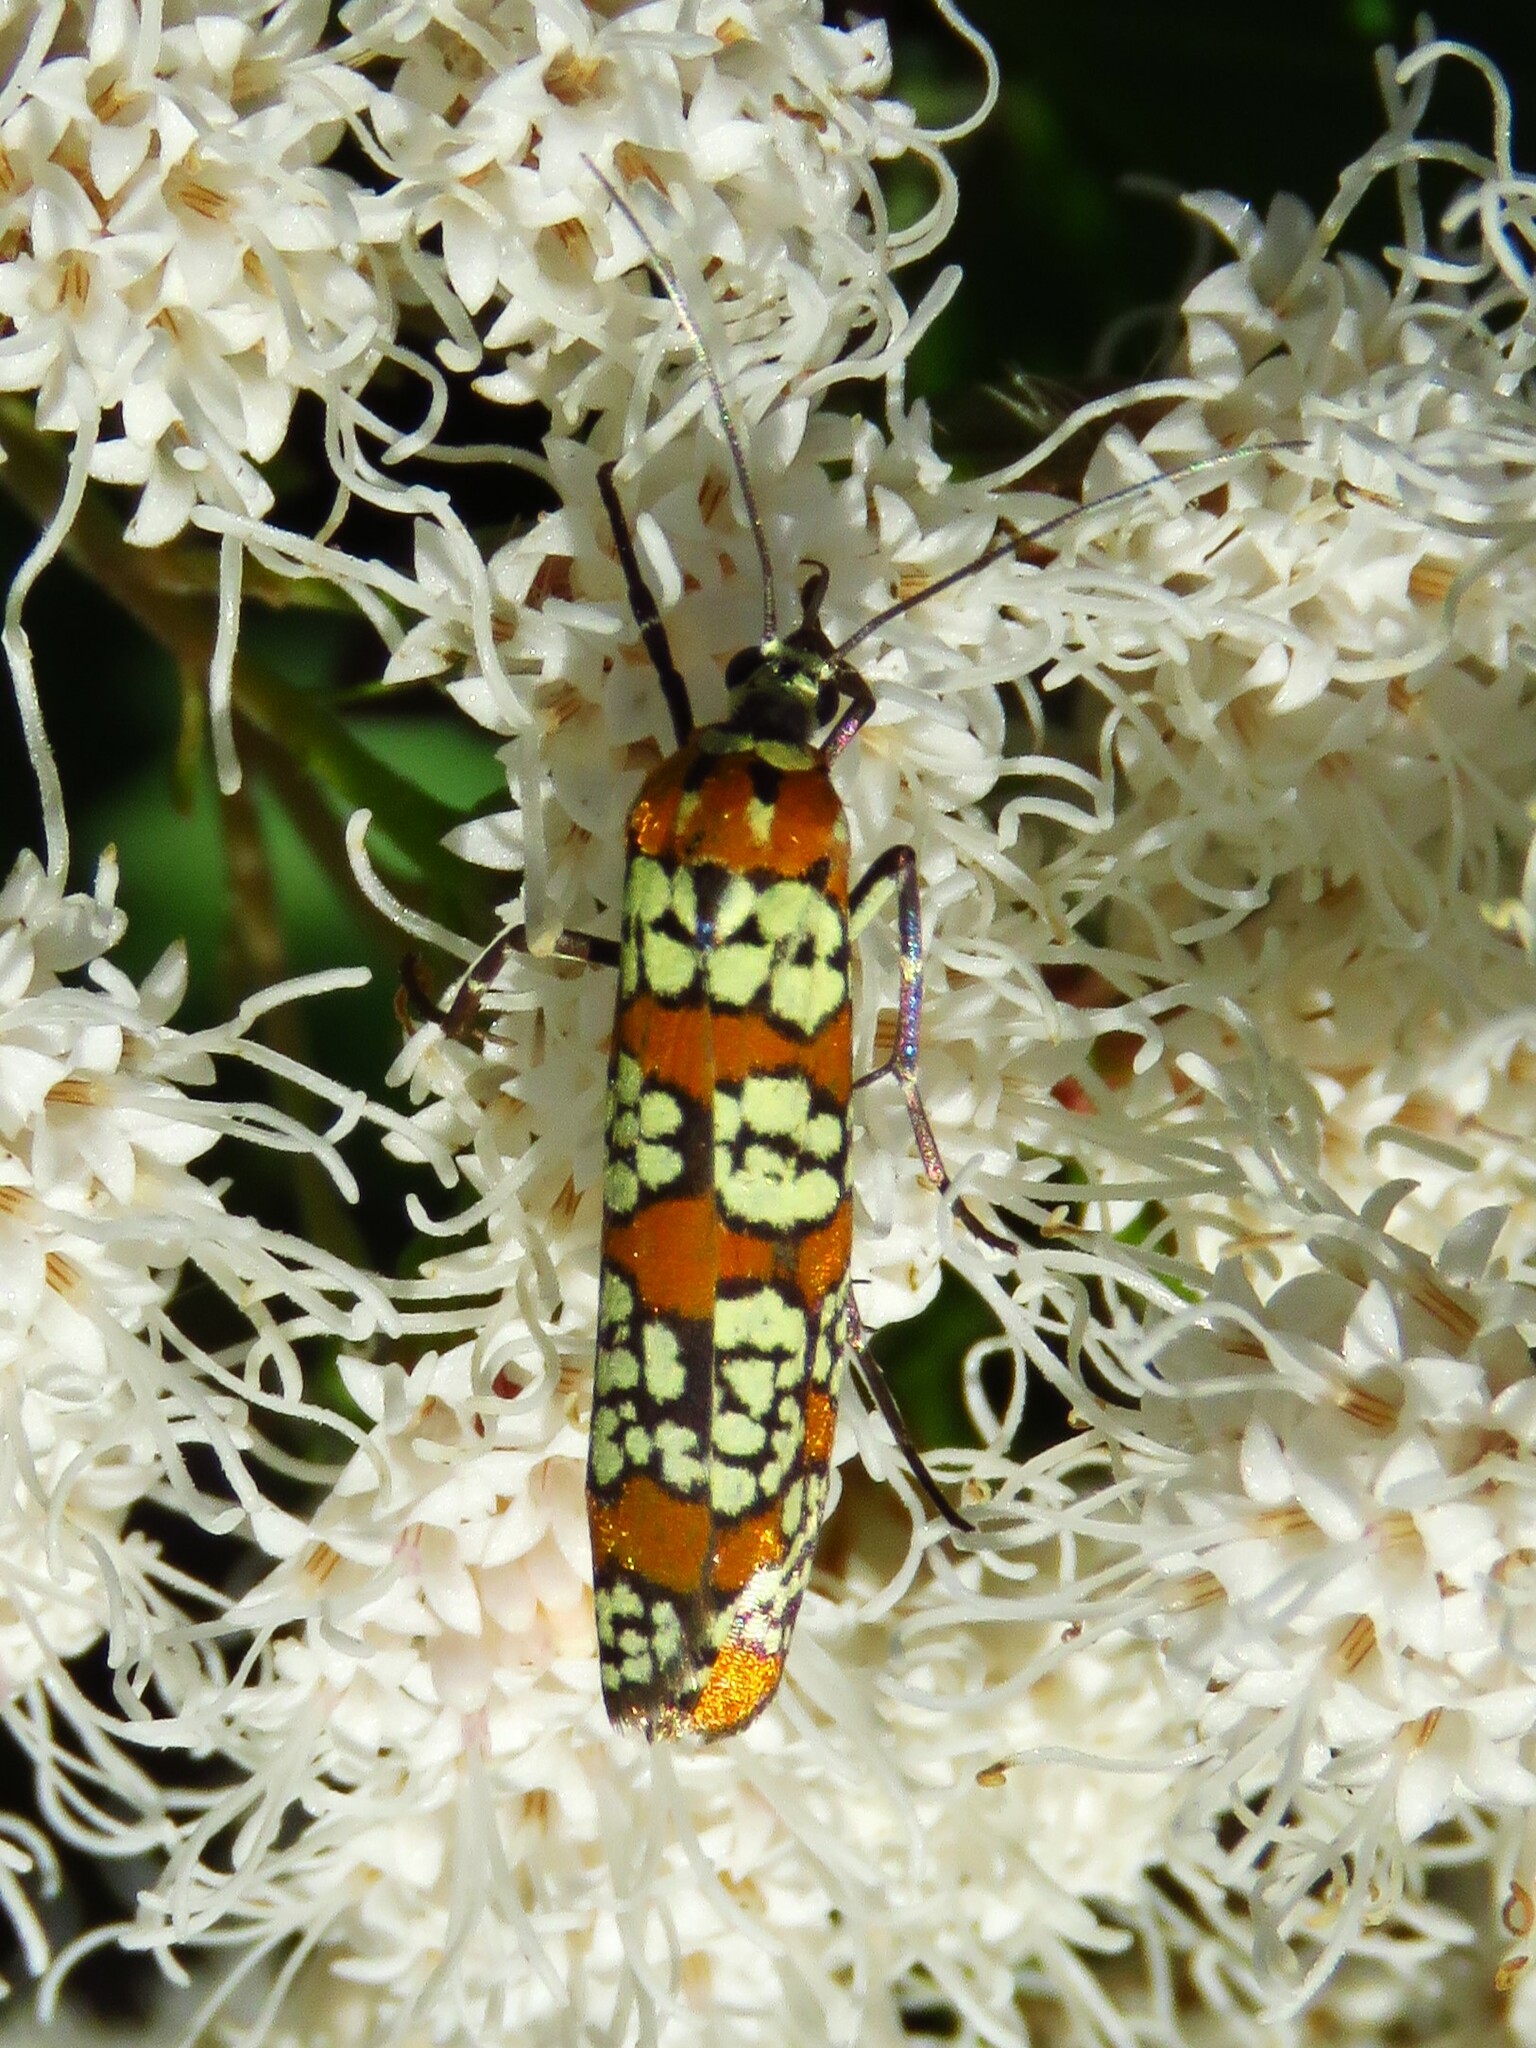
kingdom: Animalia
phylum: Arthropoda
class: Insecta
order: Lepidoptera
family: Attevidae
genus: Atteva
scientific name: Atteva punctella
